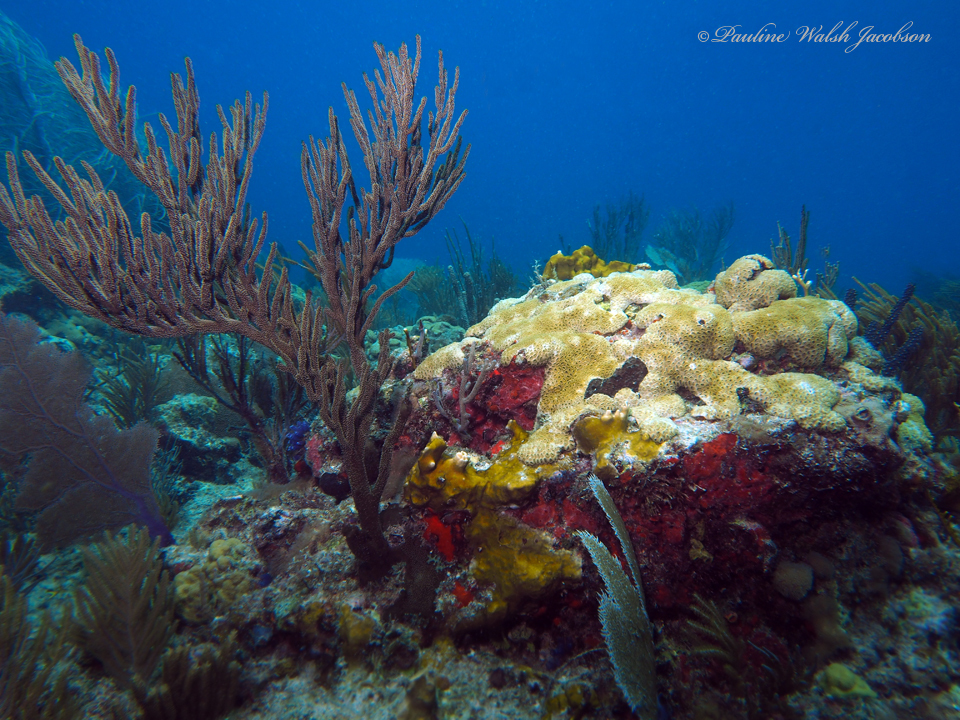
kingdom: Animalia
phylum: Cnidaria
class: Anthozoa
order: Malacalcyonacea
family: Plexauridae
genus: Plexaura
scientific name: Plexaura homomalla
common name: Black sea rod
